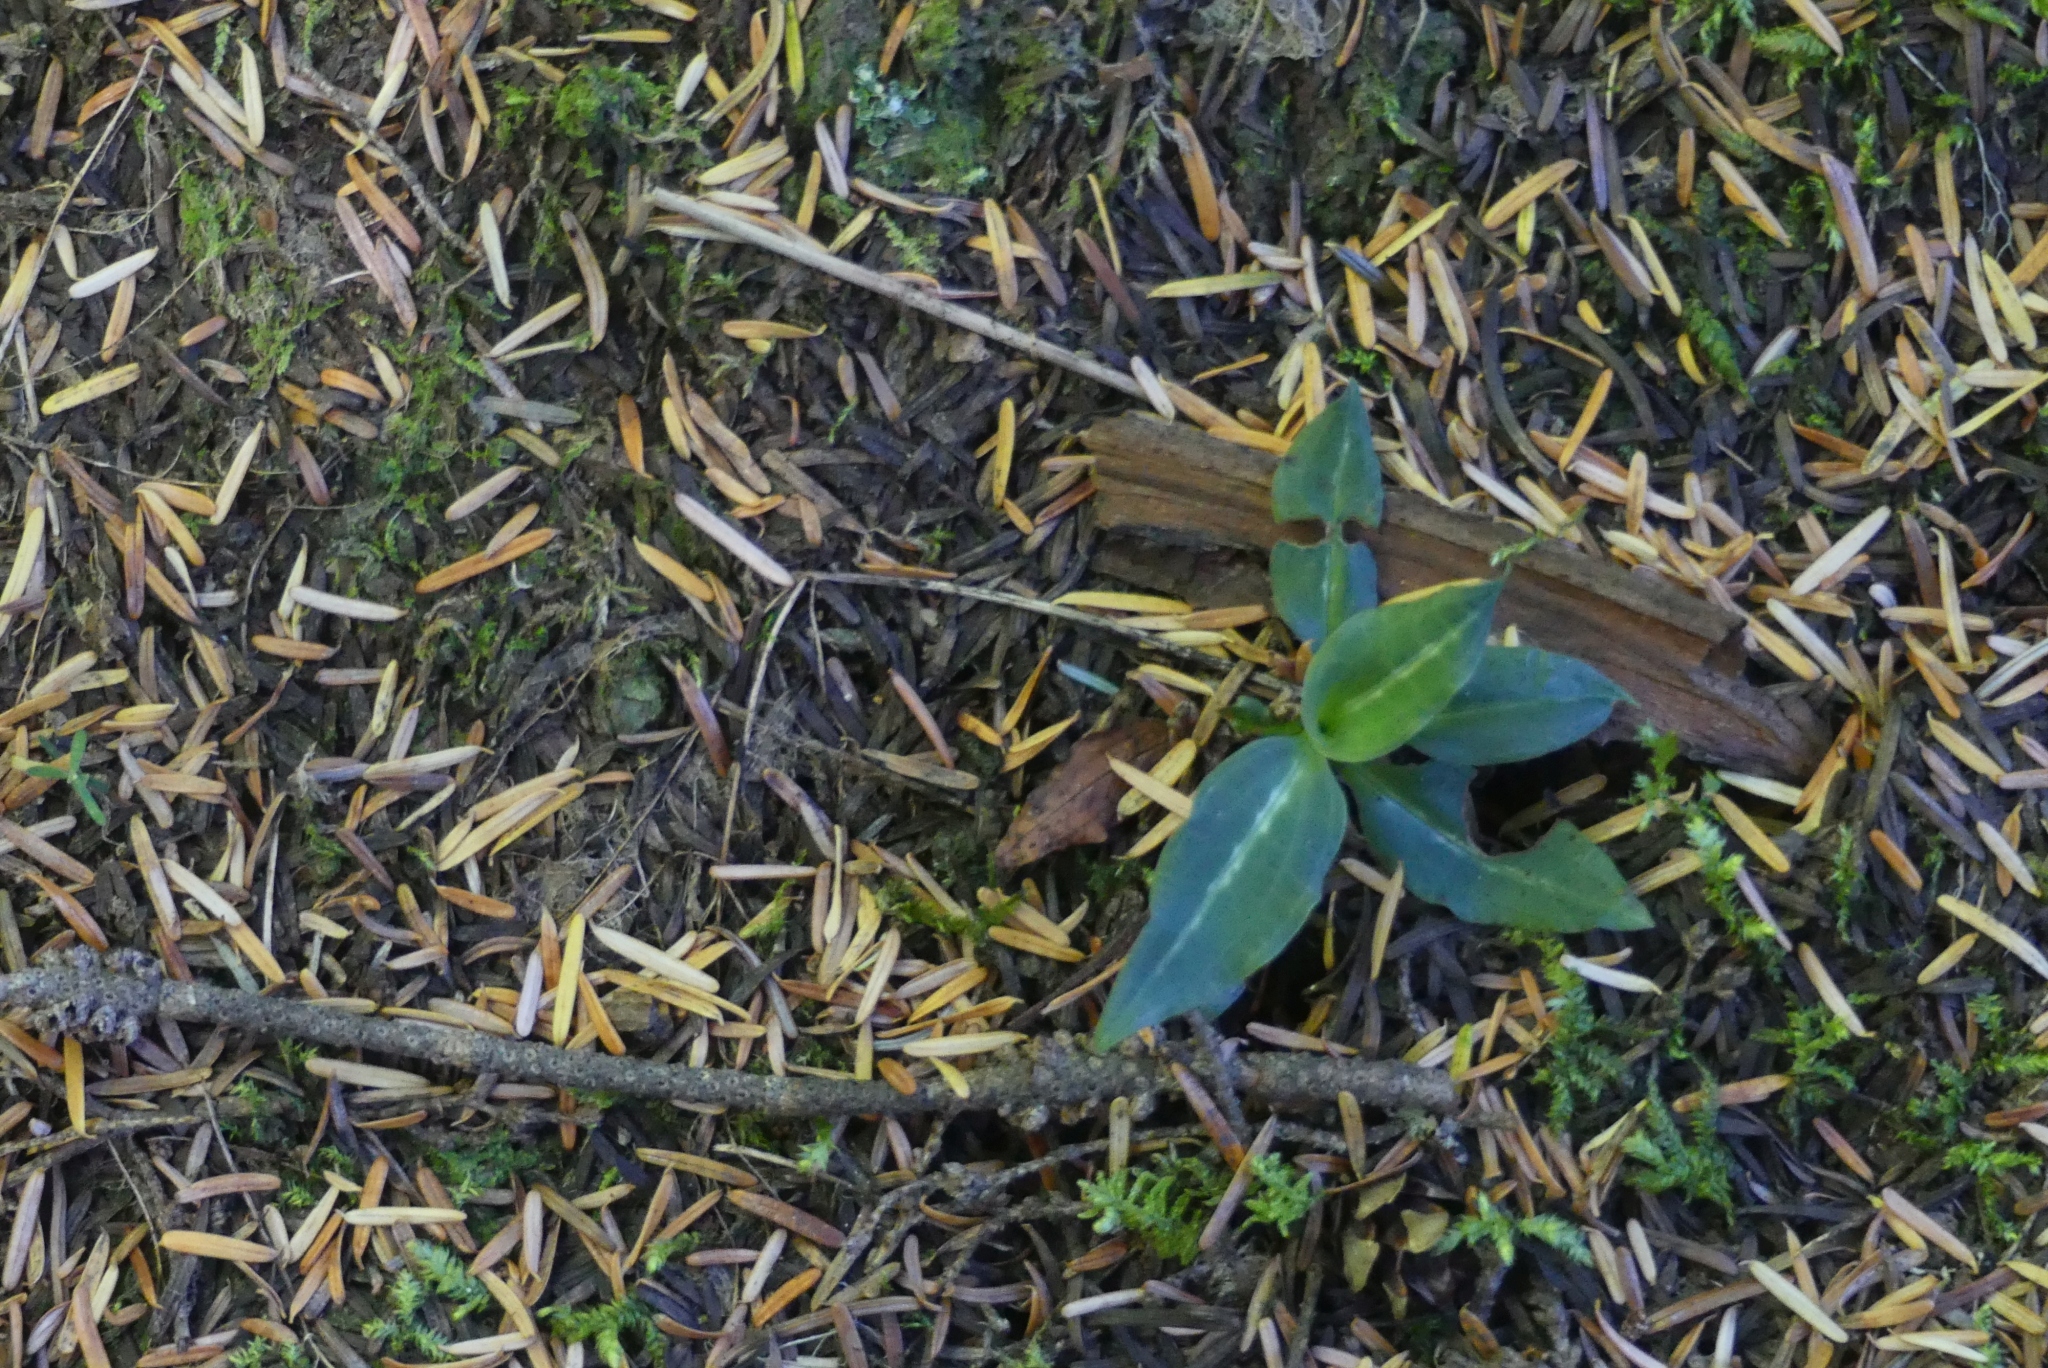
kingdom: Plantae
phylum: Tracheophyta
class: Liliopsida
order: Asparagales
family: Orchidaceae
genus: Goodyera
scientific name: Goodyera oblongifolia
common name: Giant rattlesnake-plantain
